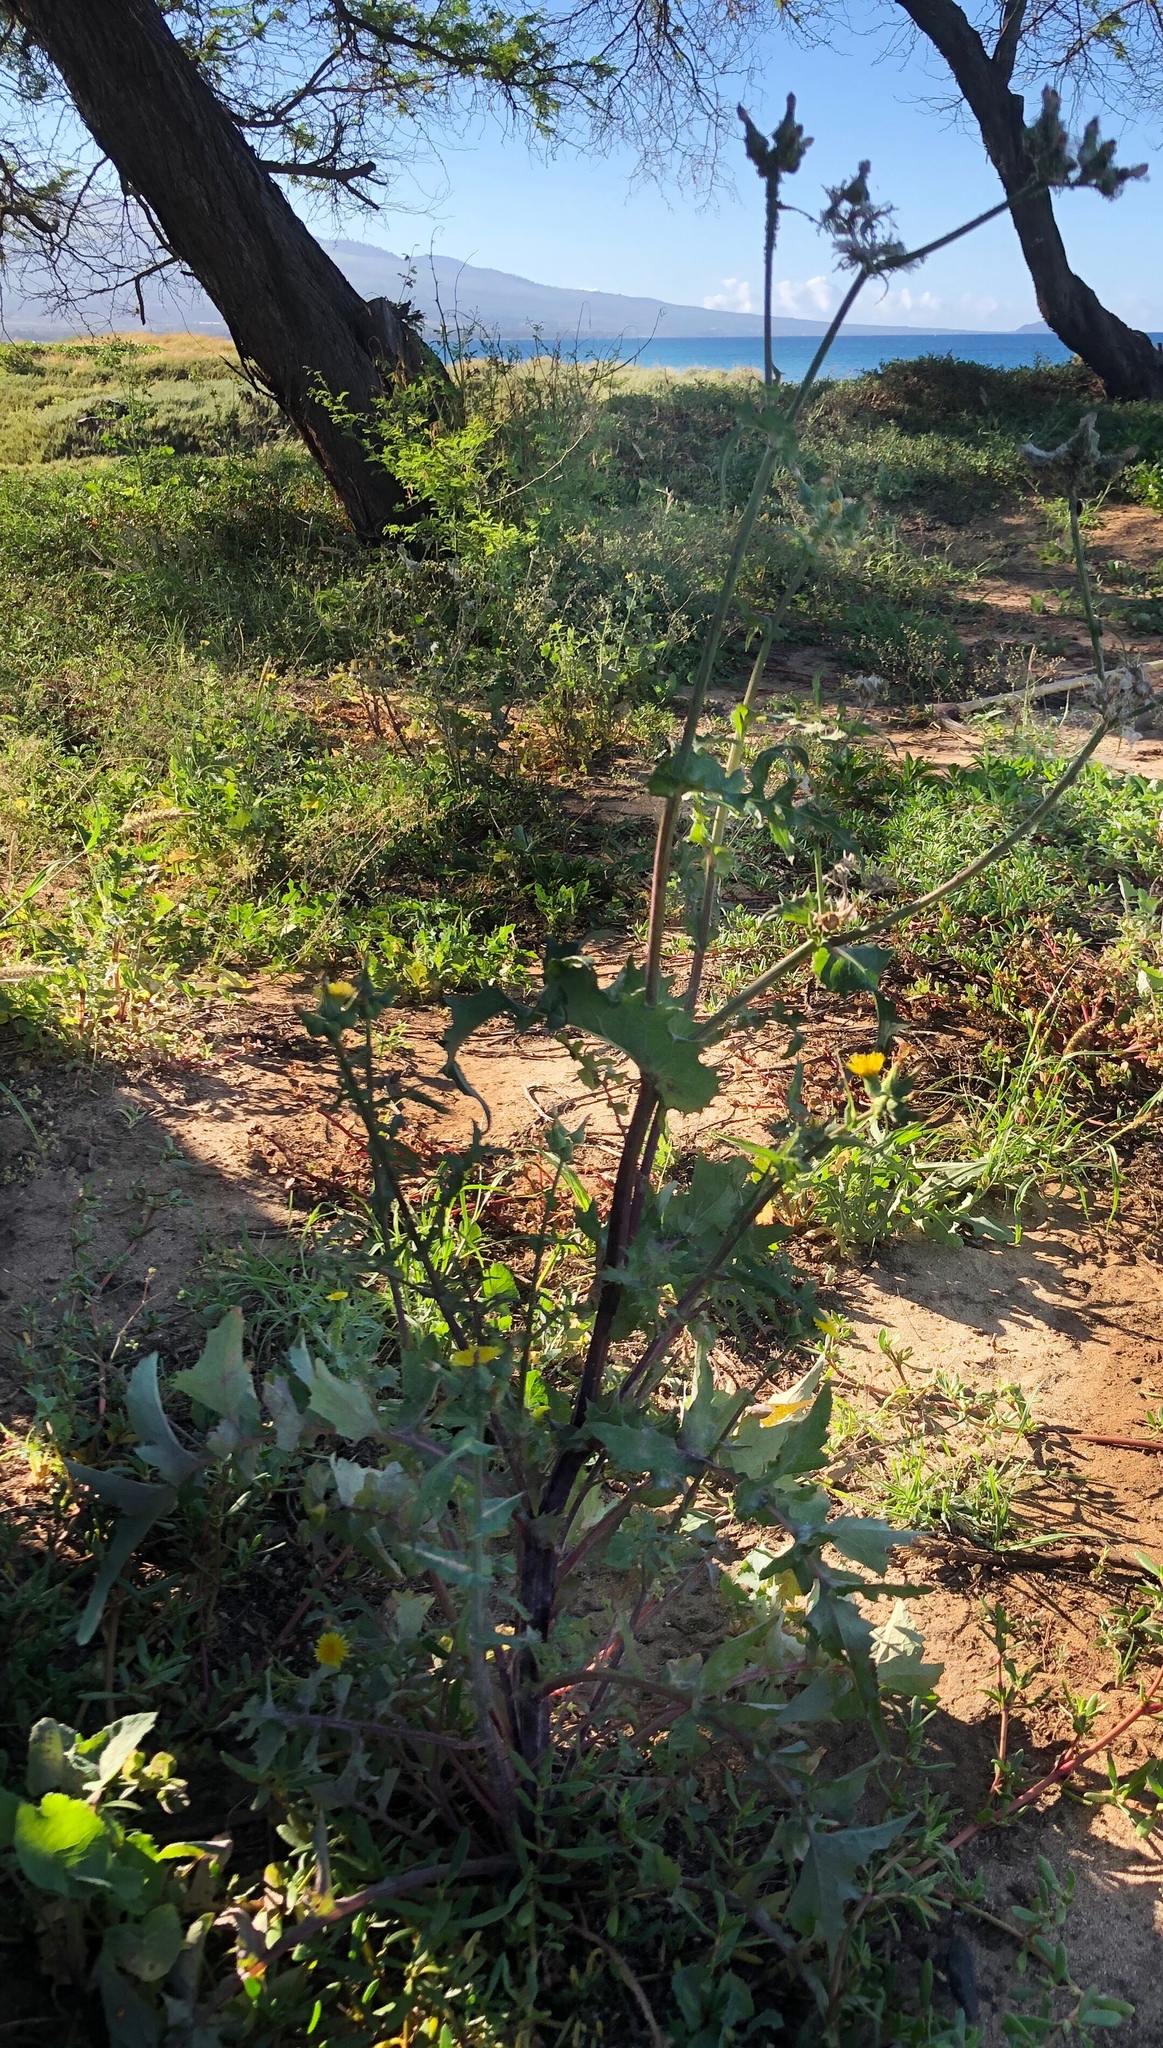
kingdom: Plantae
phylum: Tracheophyta
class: Magnoliopsida
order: Asterales
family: Asteraceae
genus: Sonchus
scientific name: Sonchus oleraceus
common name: Common sowthistle
